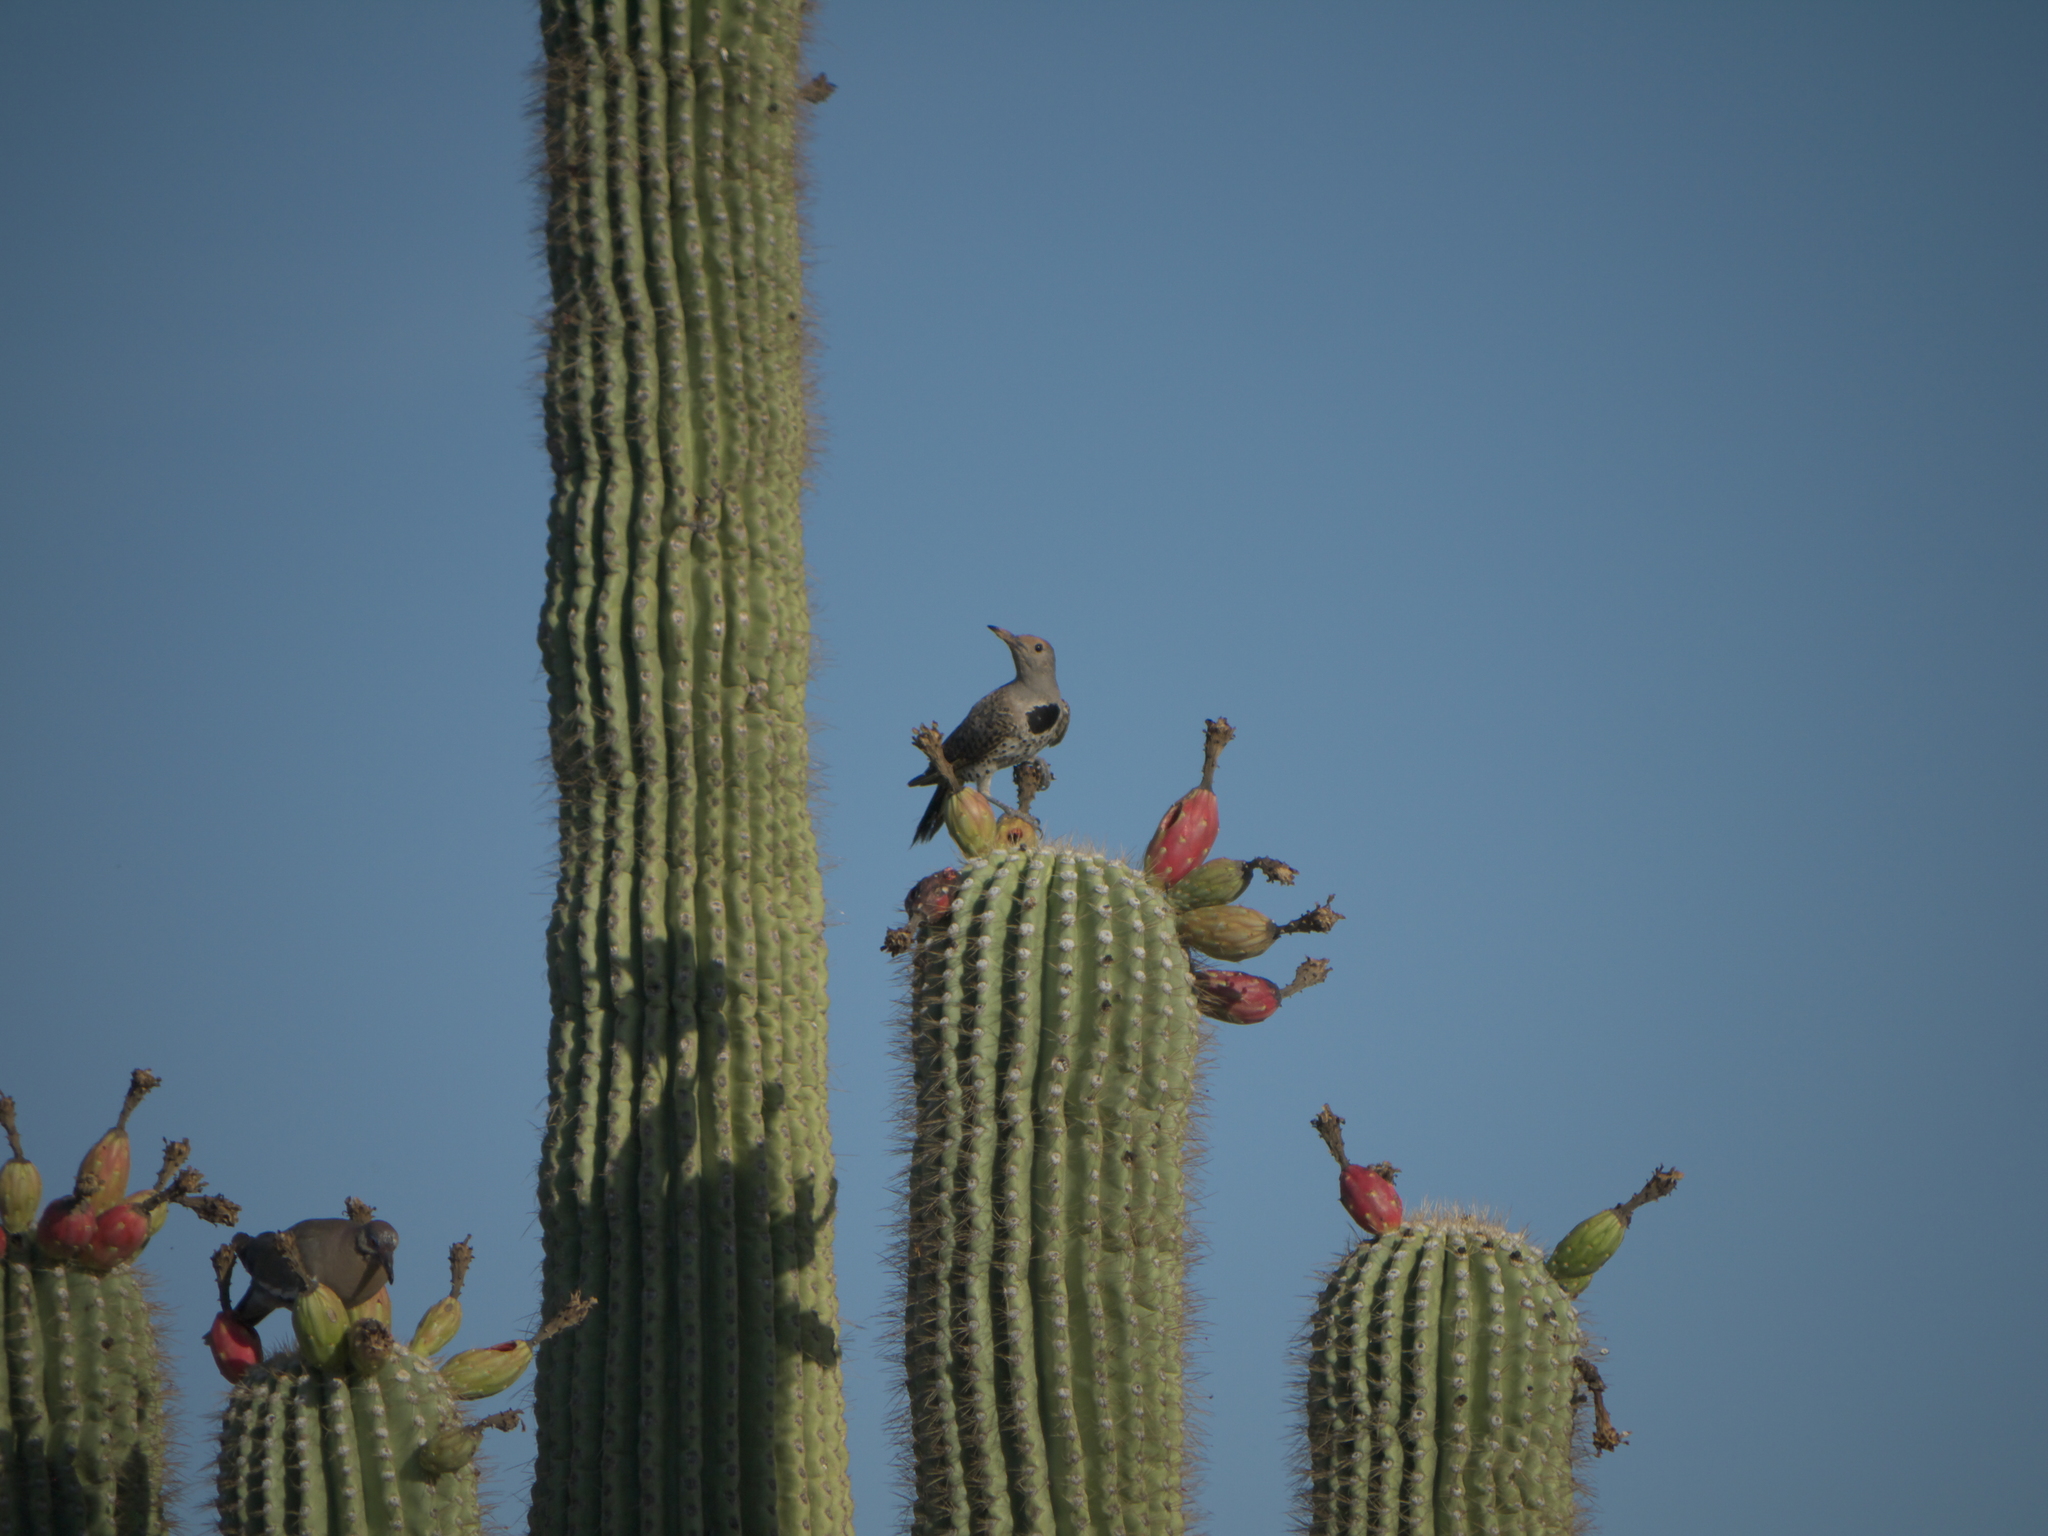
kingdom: Plantae
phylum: Tracheophyta
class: Magnoliopsida
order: Caryophyllales
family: Cactaceae
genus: Carnegiea
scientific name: Carnegiea gigantea
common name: Saguaro
